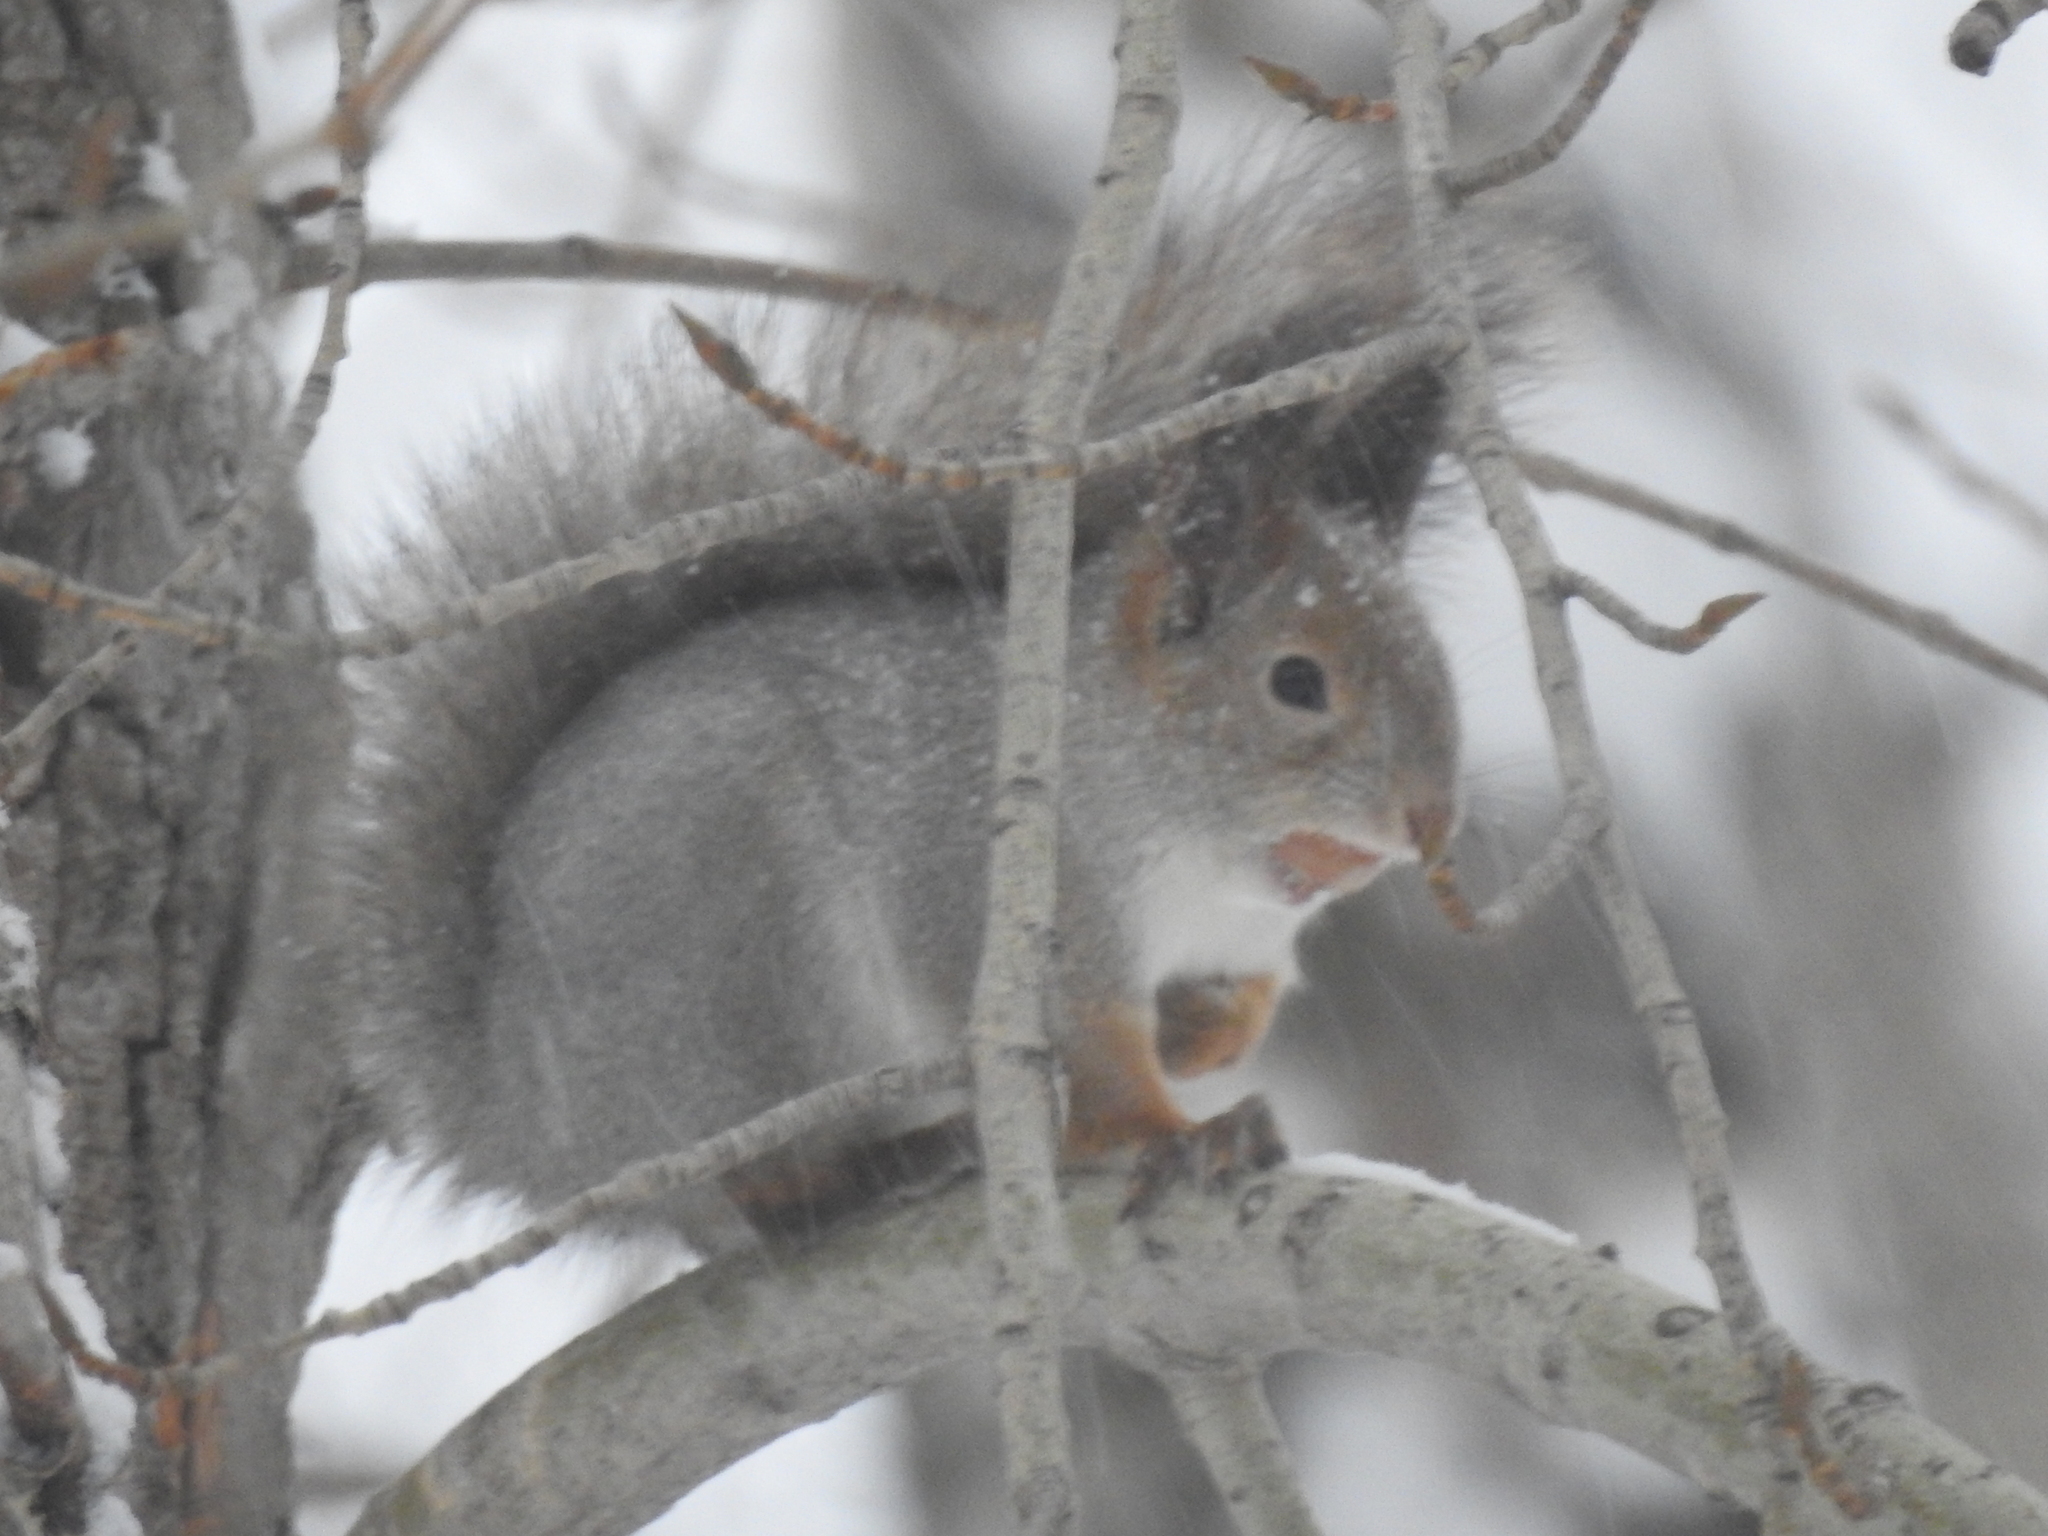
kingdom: Animalia
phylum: Chordata
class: Mammalia
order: Rodentia
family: Sciuridae
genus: Sciurus
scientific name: Sciurus vulgaris
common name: Eurasian red squirrel
